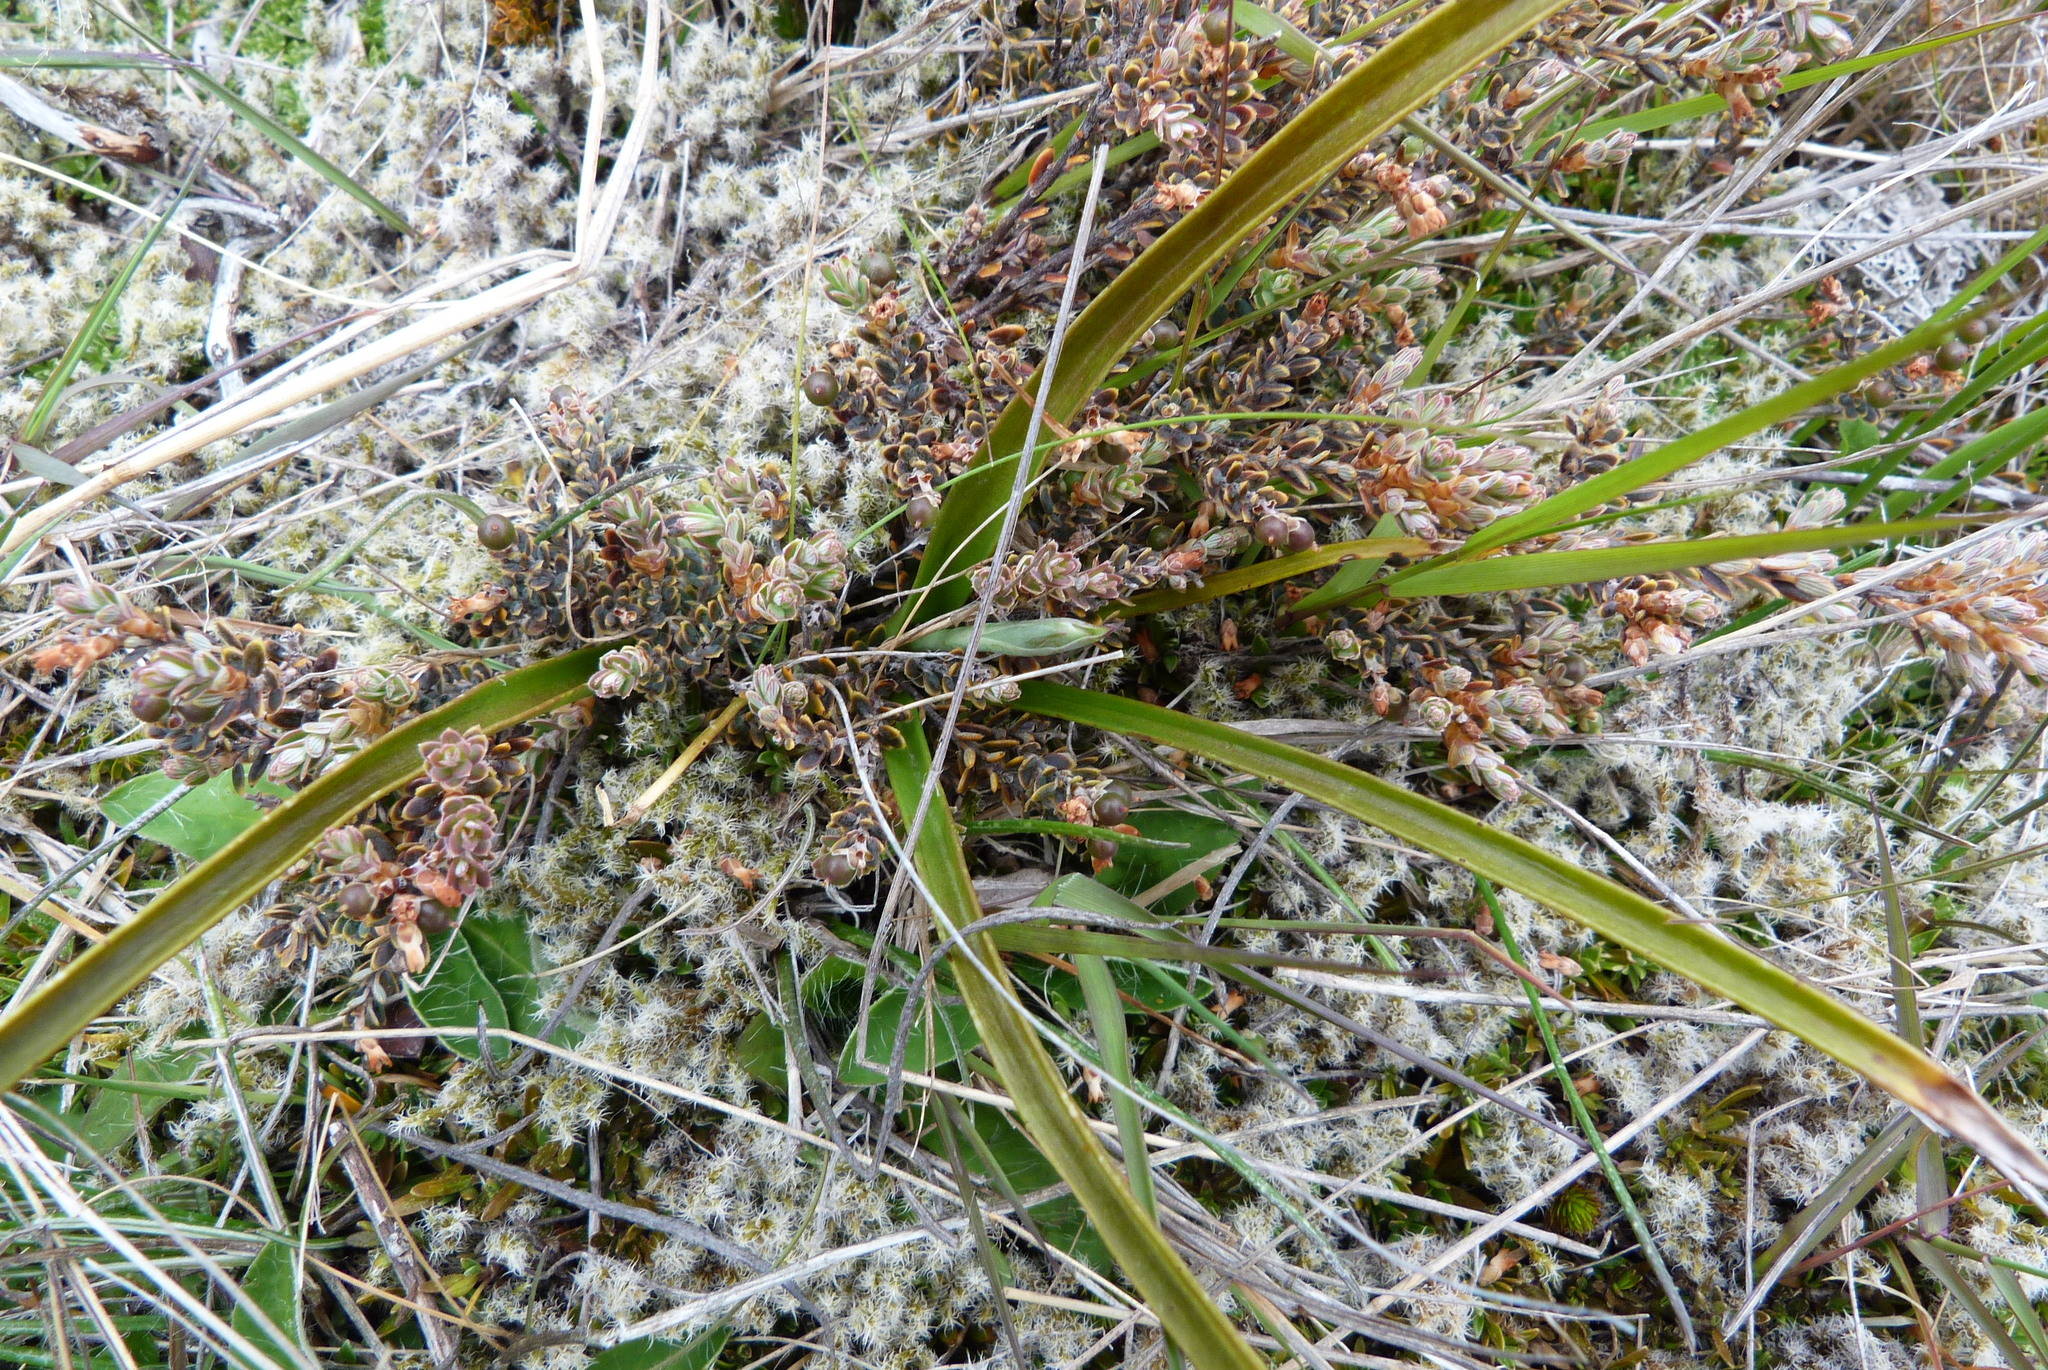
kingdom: Plantae
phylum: Tracheophyta
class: Magnoliopsida
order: Ericales
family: Ericaceae
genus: Acrothamnus
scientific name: Acrothamnus colensoi
